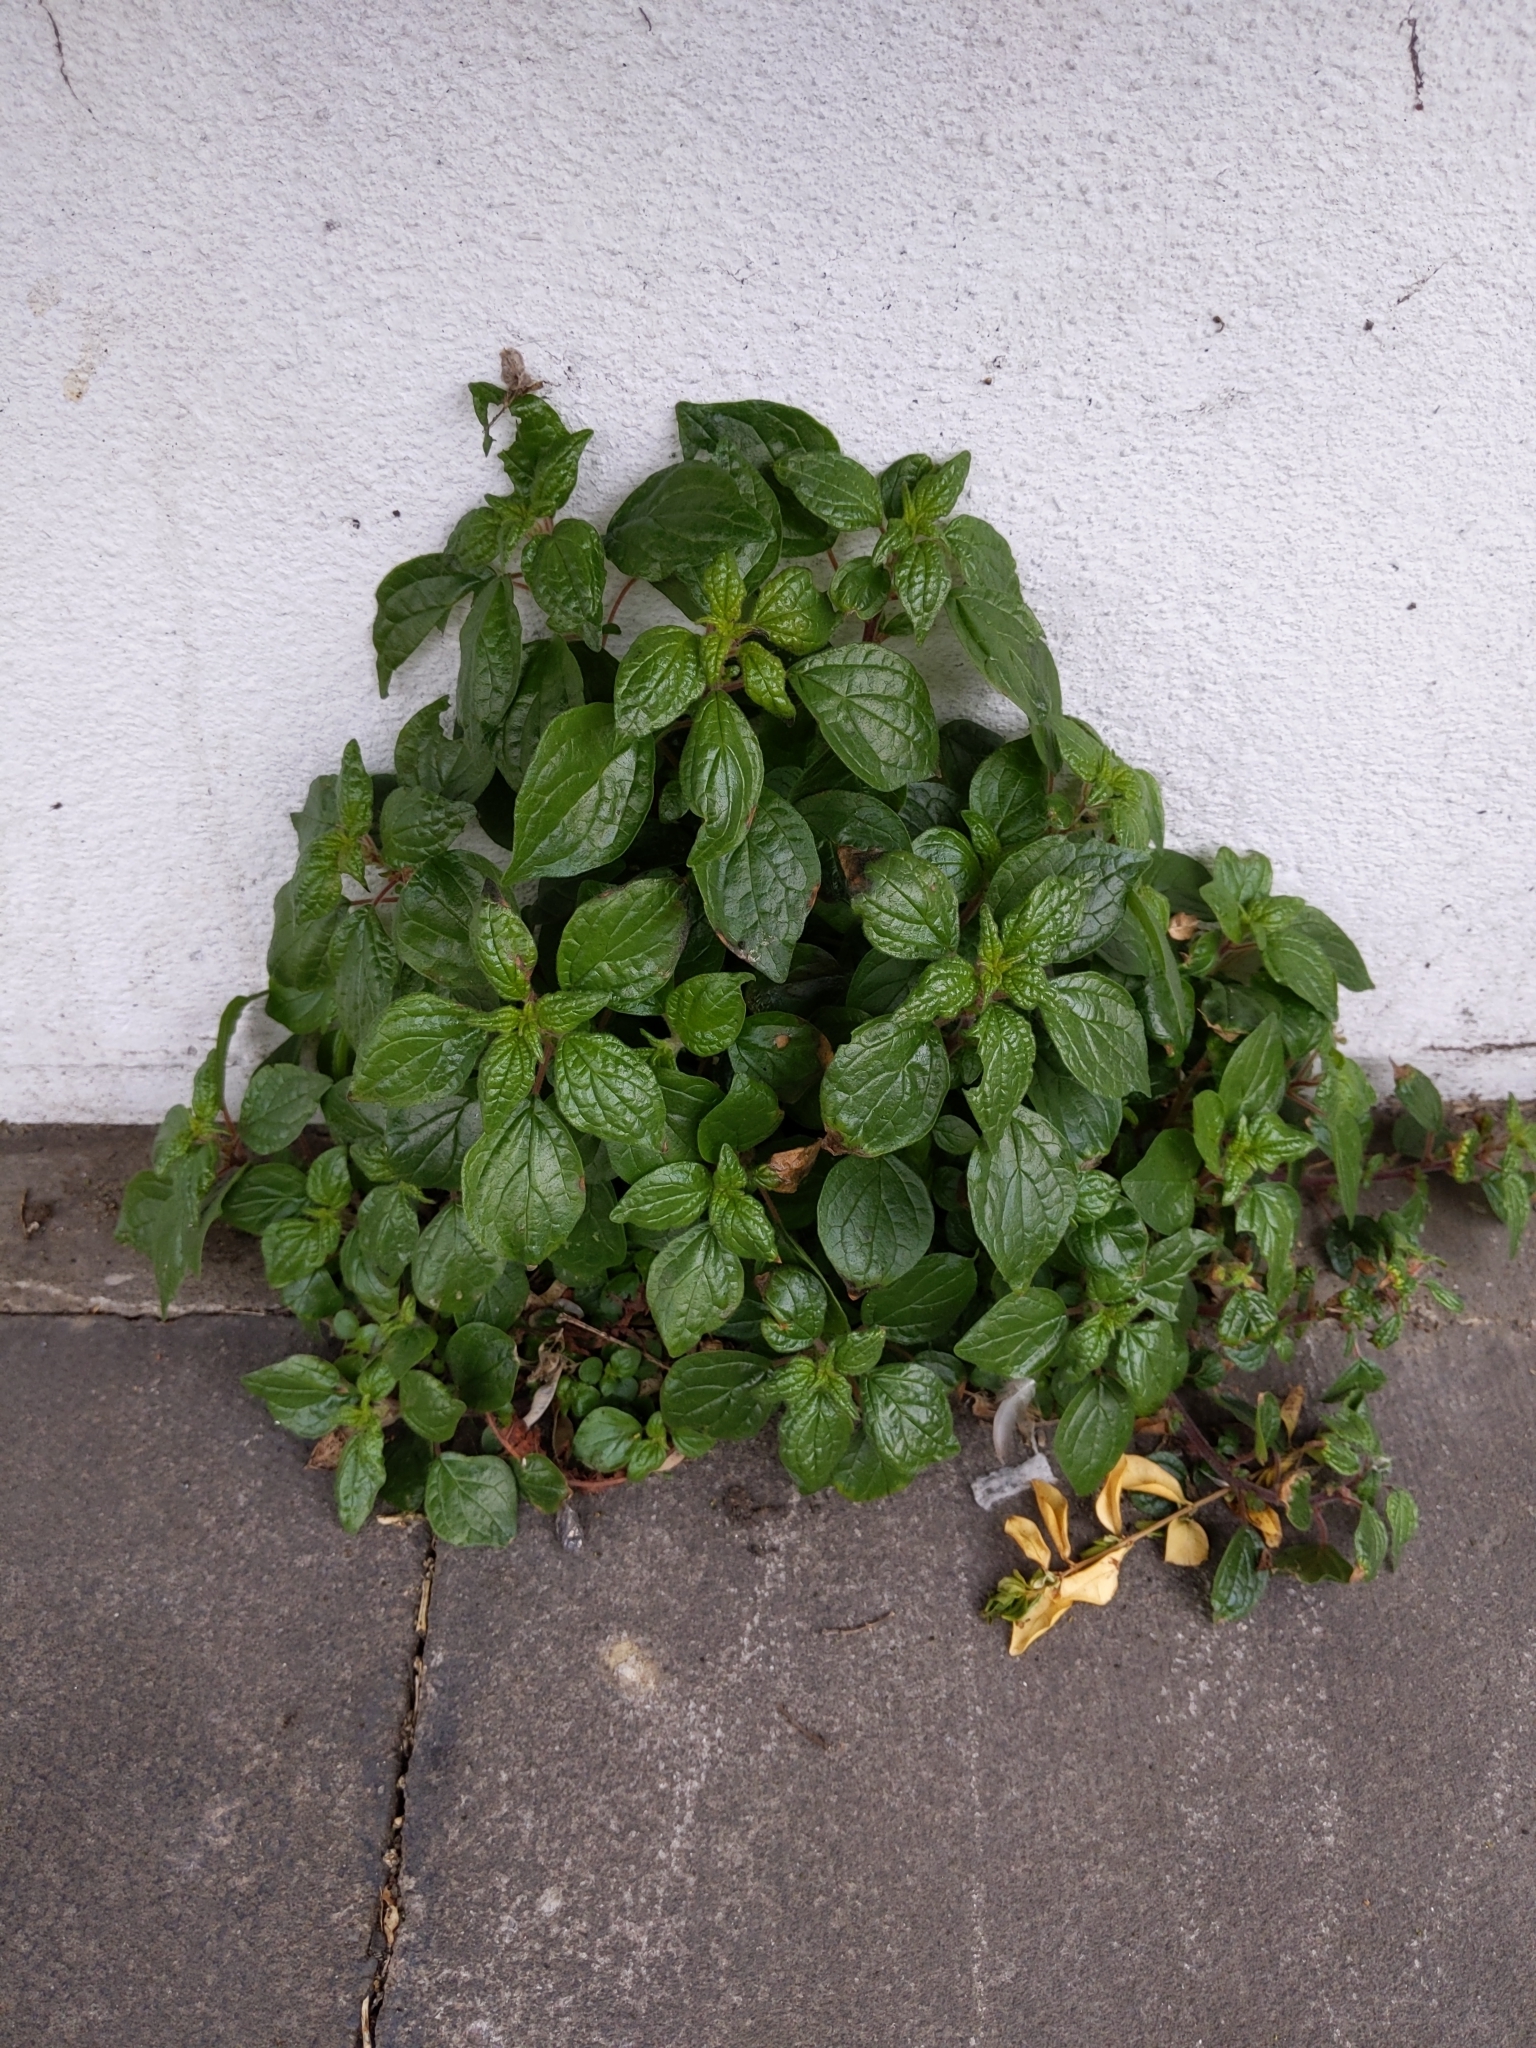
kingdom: Plantae
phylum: Tracheophyta
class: Magnoliopsida
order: Rosales
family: Urticaceae
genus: Parietaria
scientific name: Parietaria judaica
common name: Pellitory-of-the-wall
